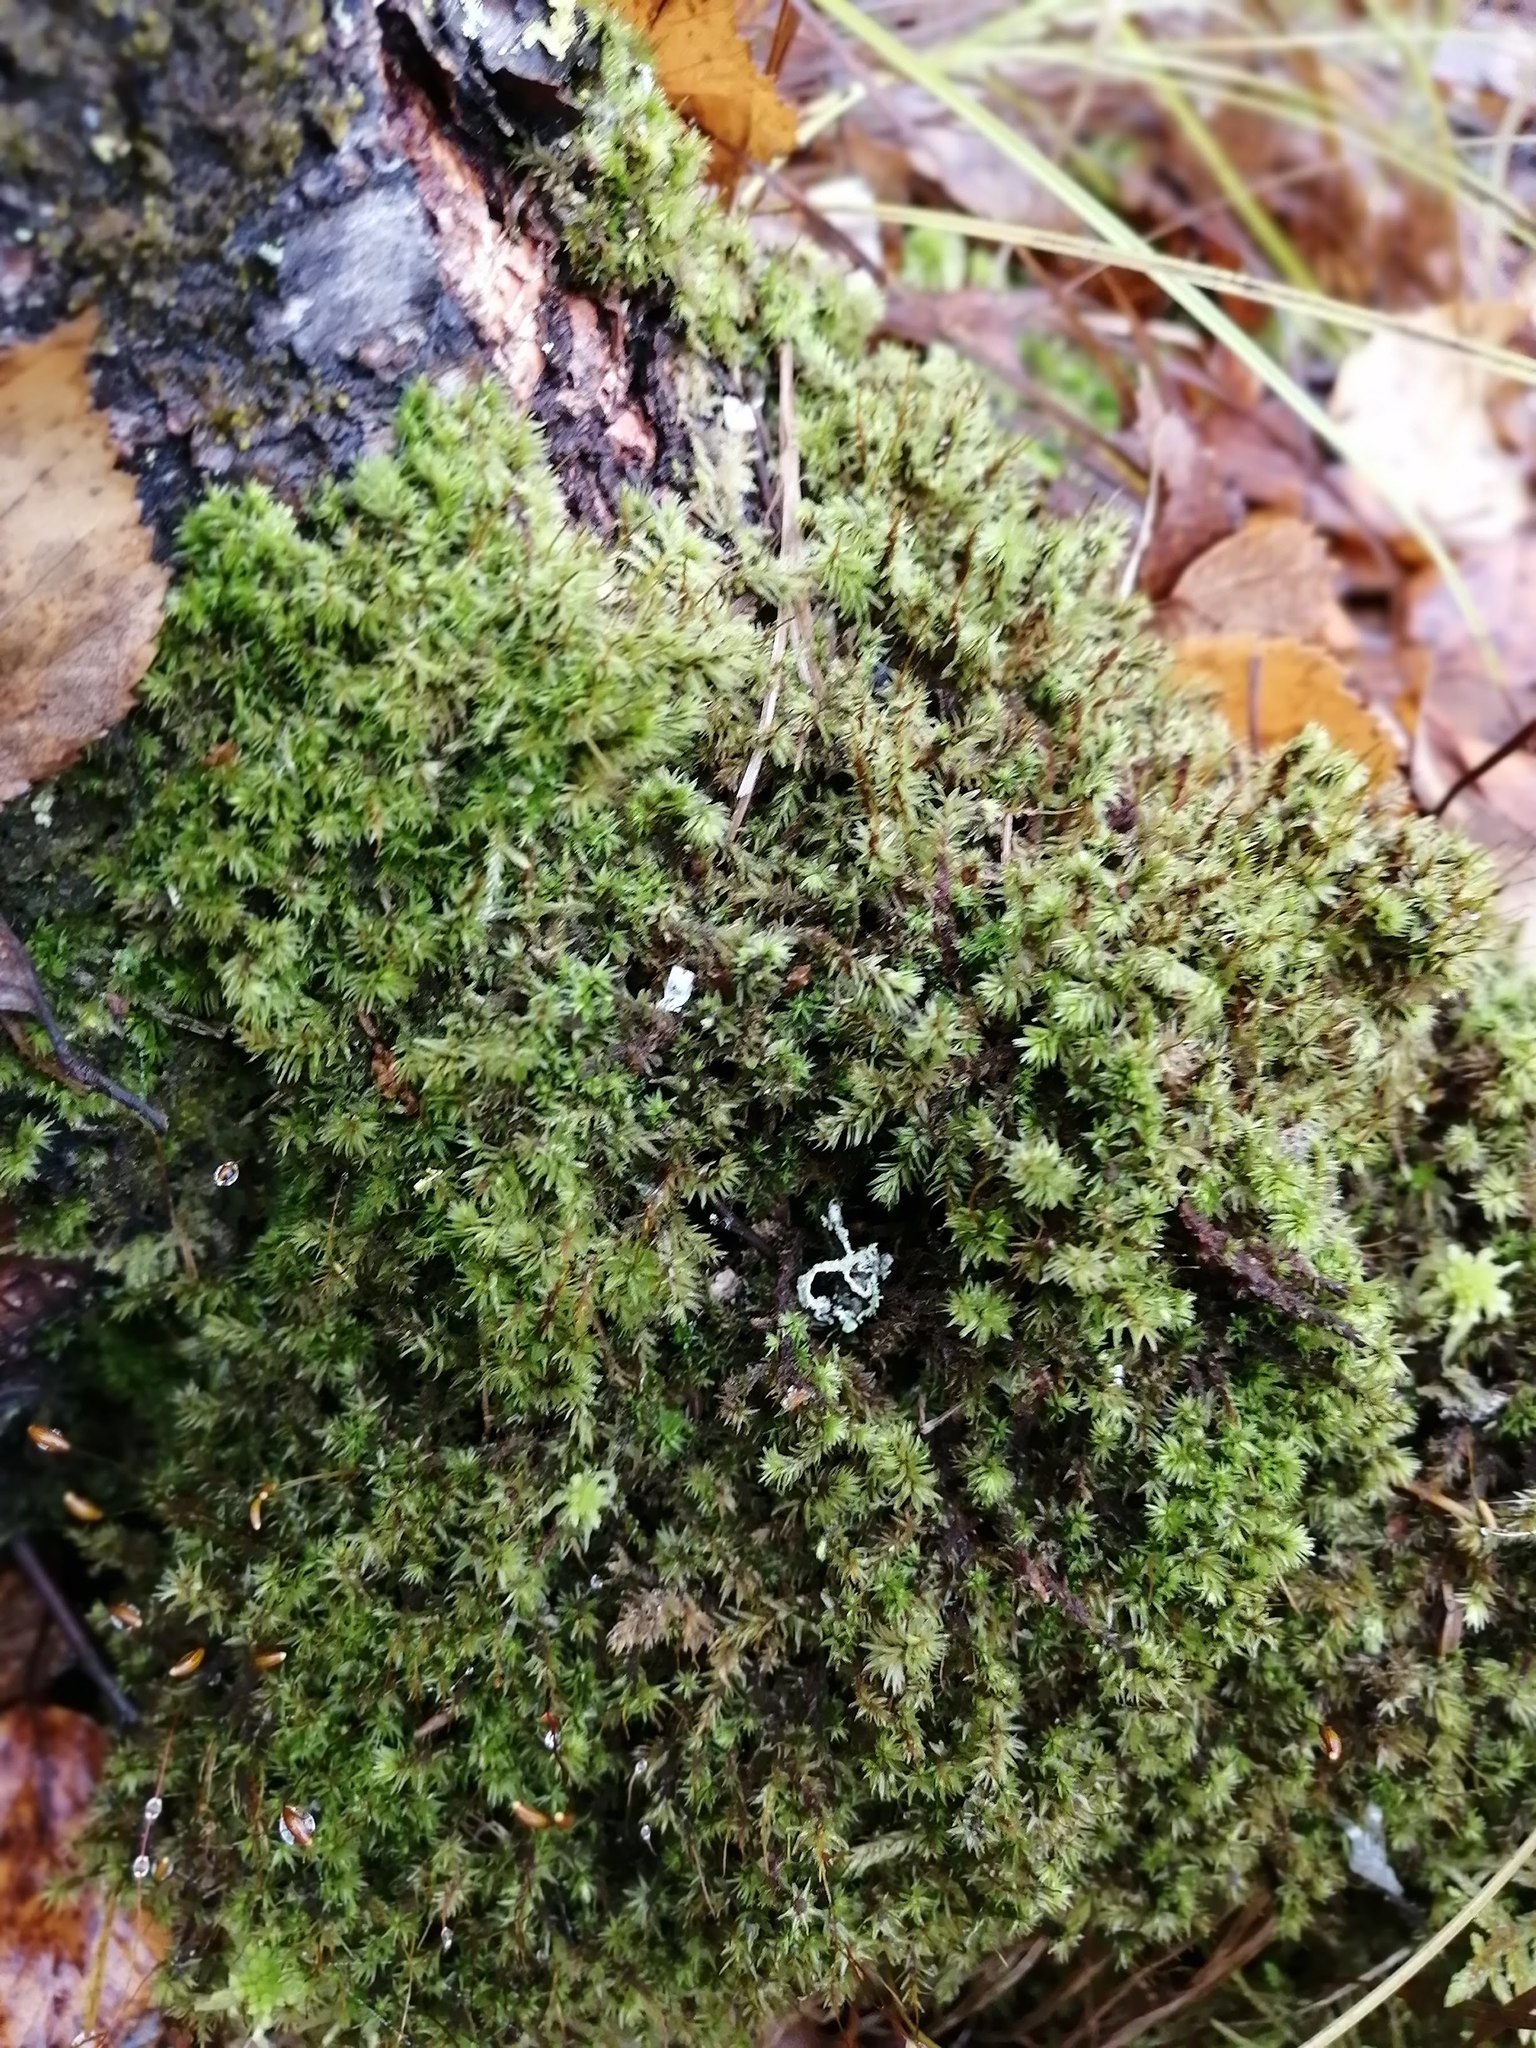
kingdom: Plantae
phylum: Bryophyta
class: Bryopsida
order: Aulacomniales
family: Aulacomniaceae
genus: Aulacomnium
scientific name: Aulacomnium androgynum
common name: Little groove moss
